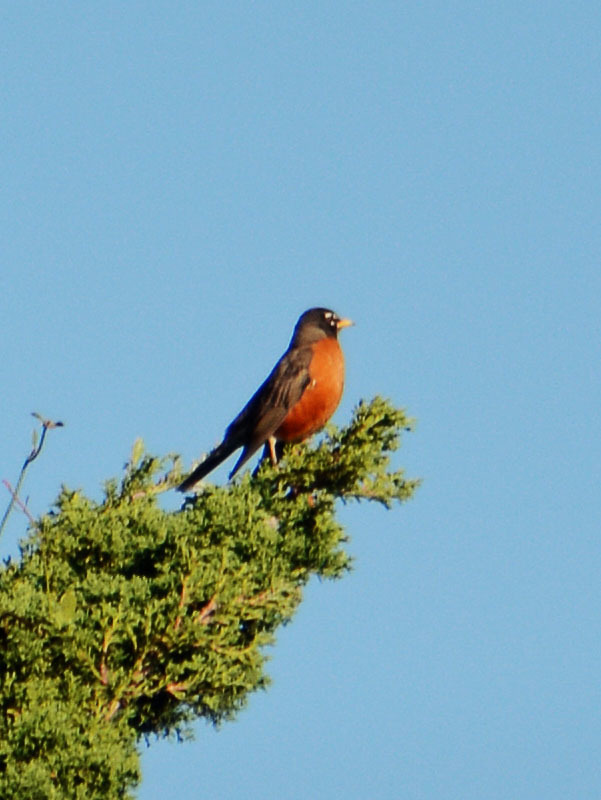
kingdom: Animalia
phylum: Chordata
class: Aves
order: Passeriformes
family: Turdidae
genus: Turdus
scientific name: Turdus migratorius
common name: American robin
